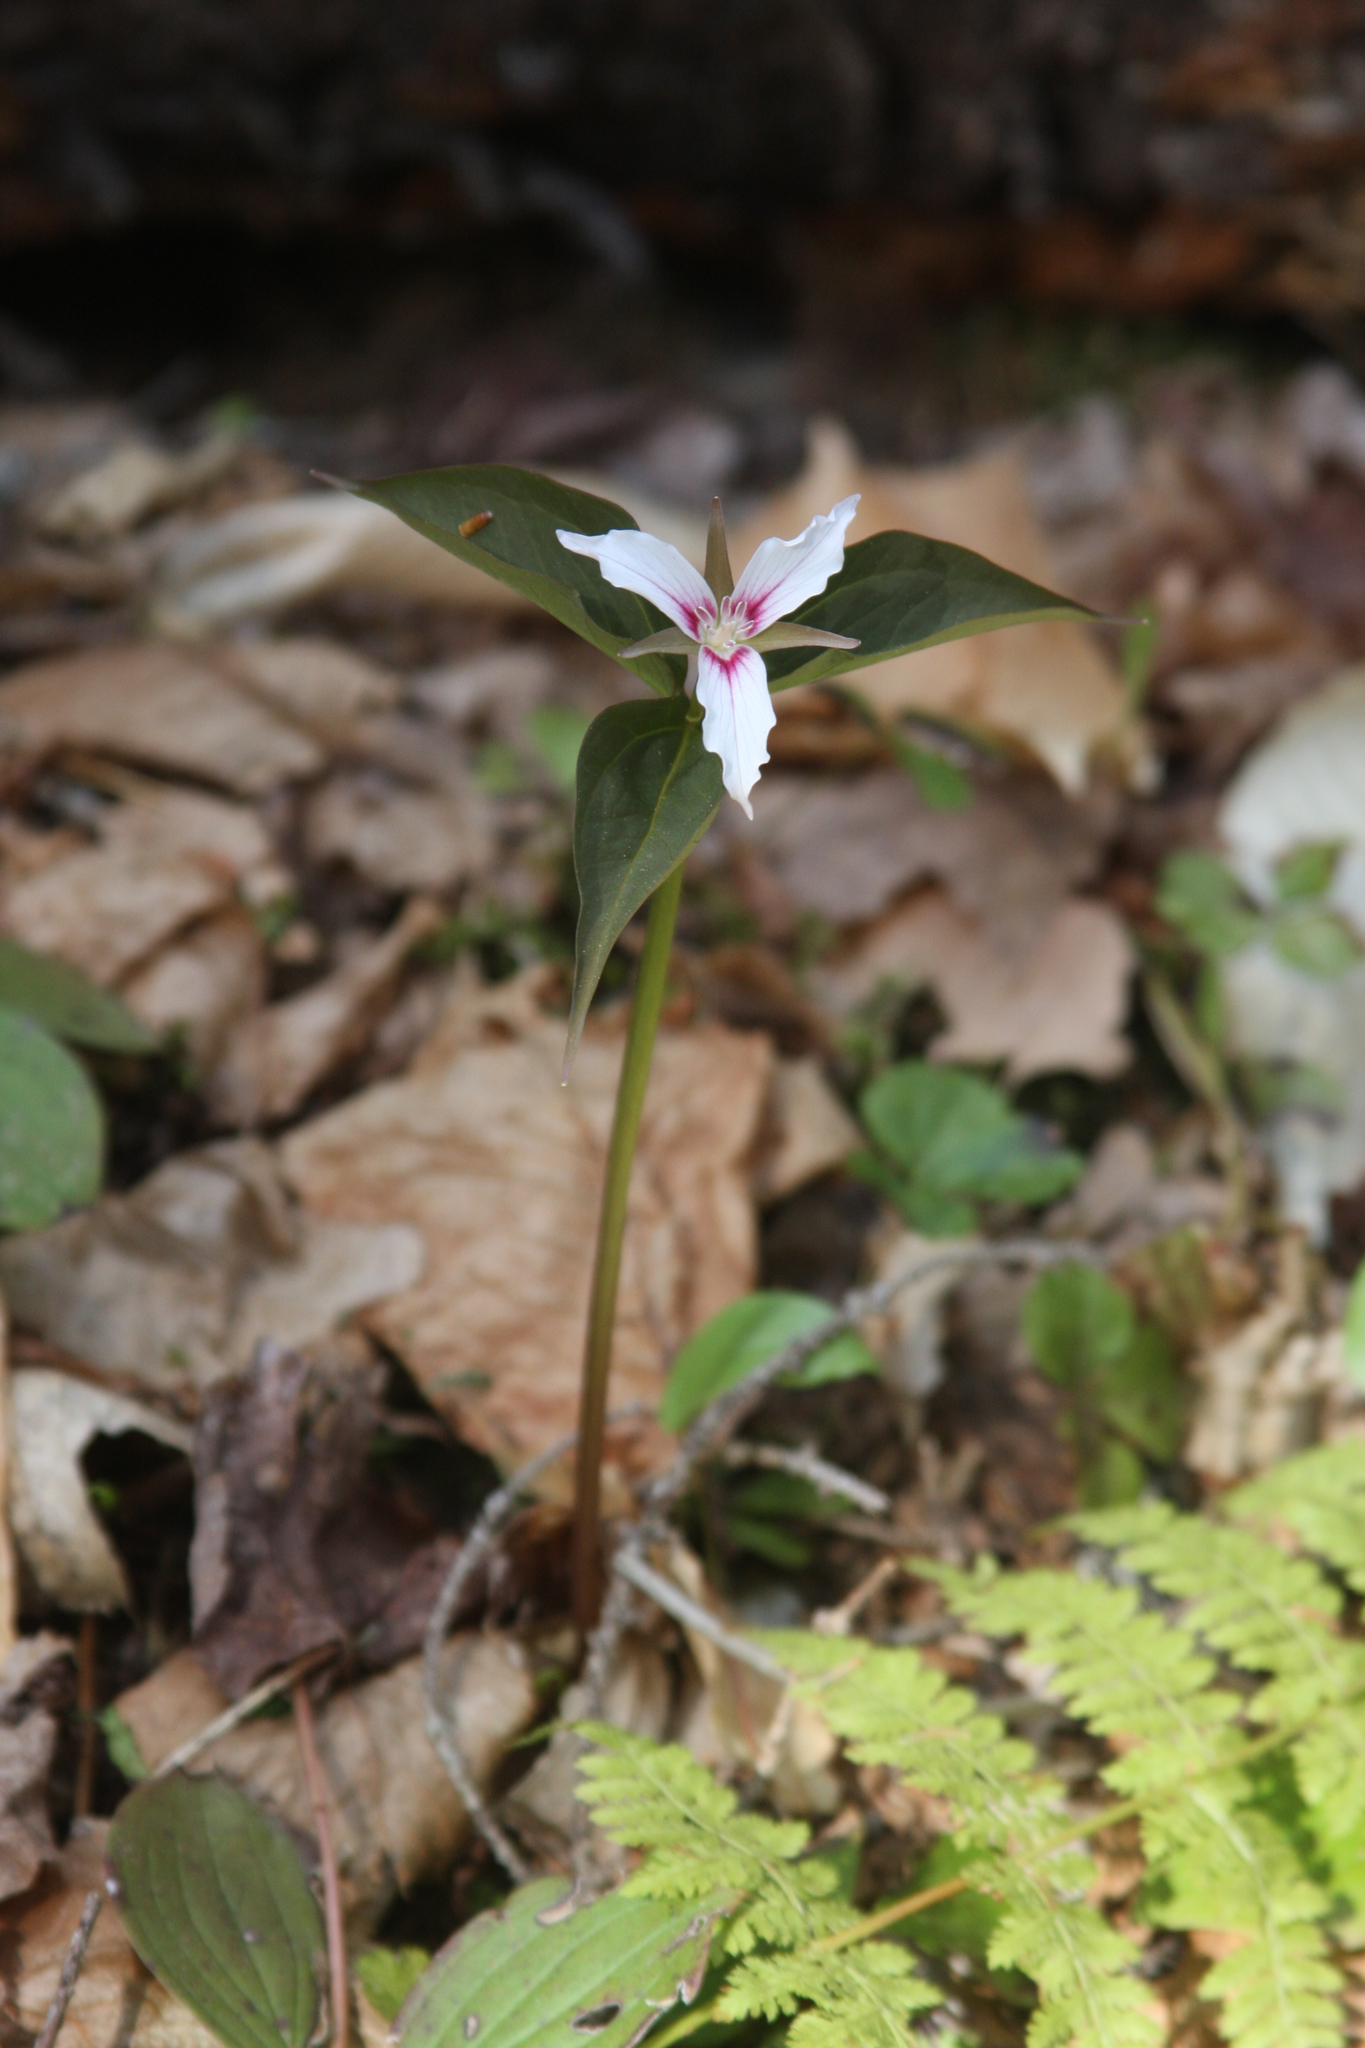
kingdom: Plantae
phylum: Tracheophyta
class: Liliopsida
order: Liliales
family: Melanthiaceae
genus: Trillium
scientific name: Trillium undulatum
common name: Paint trillium
